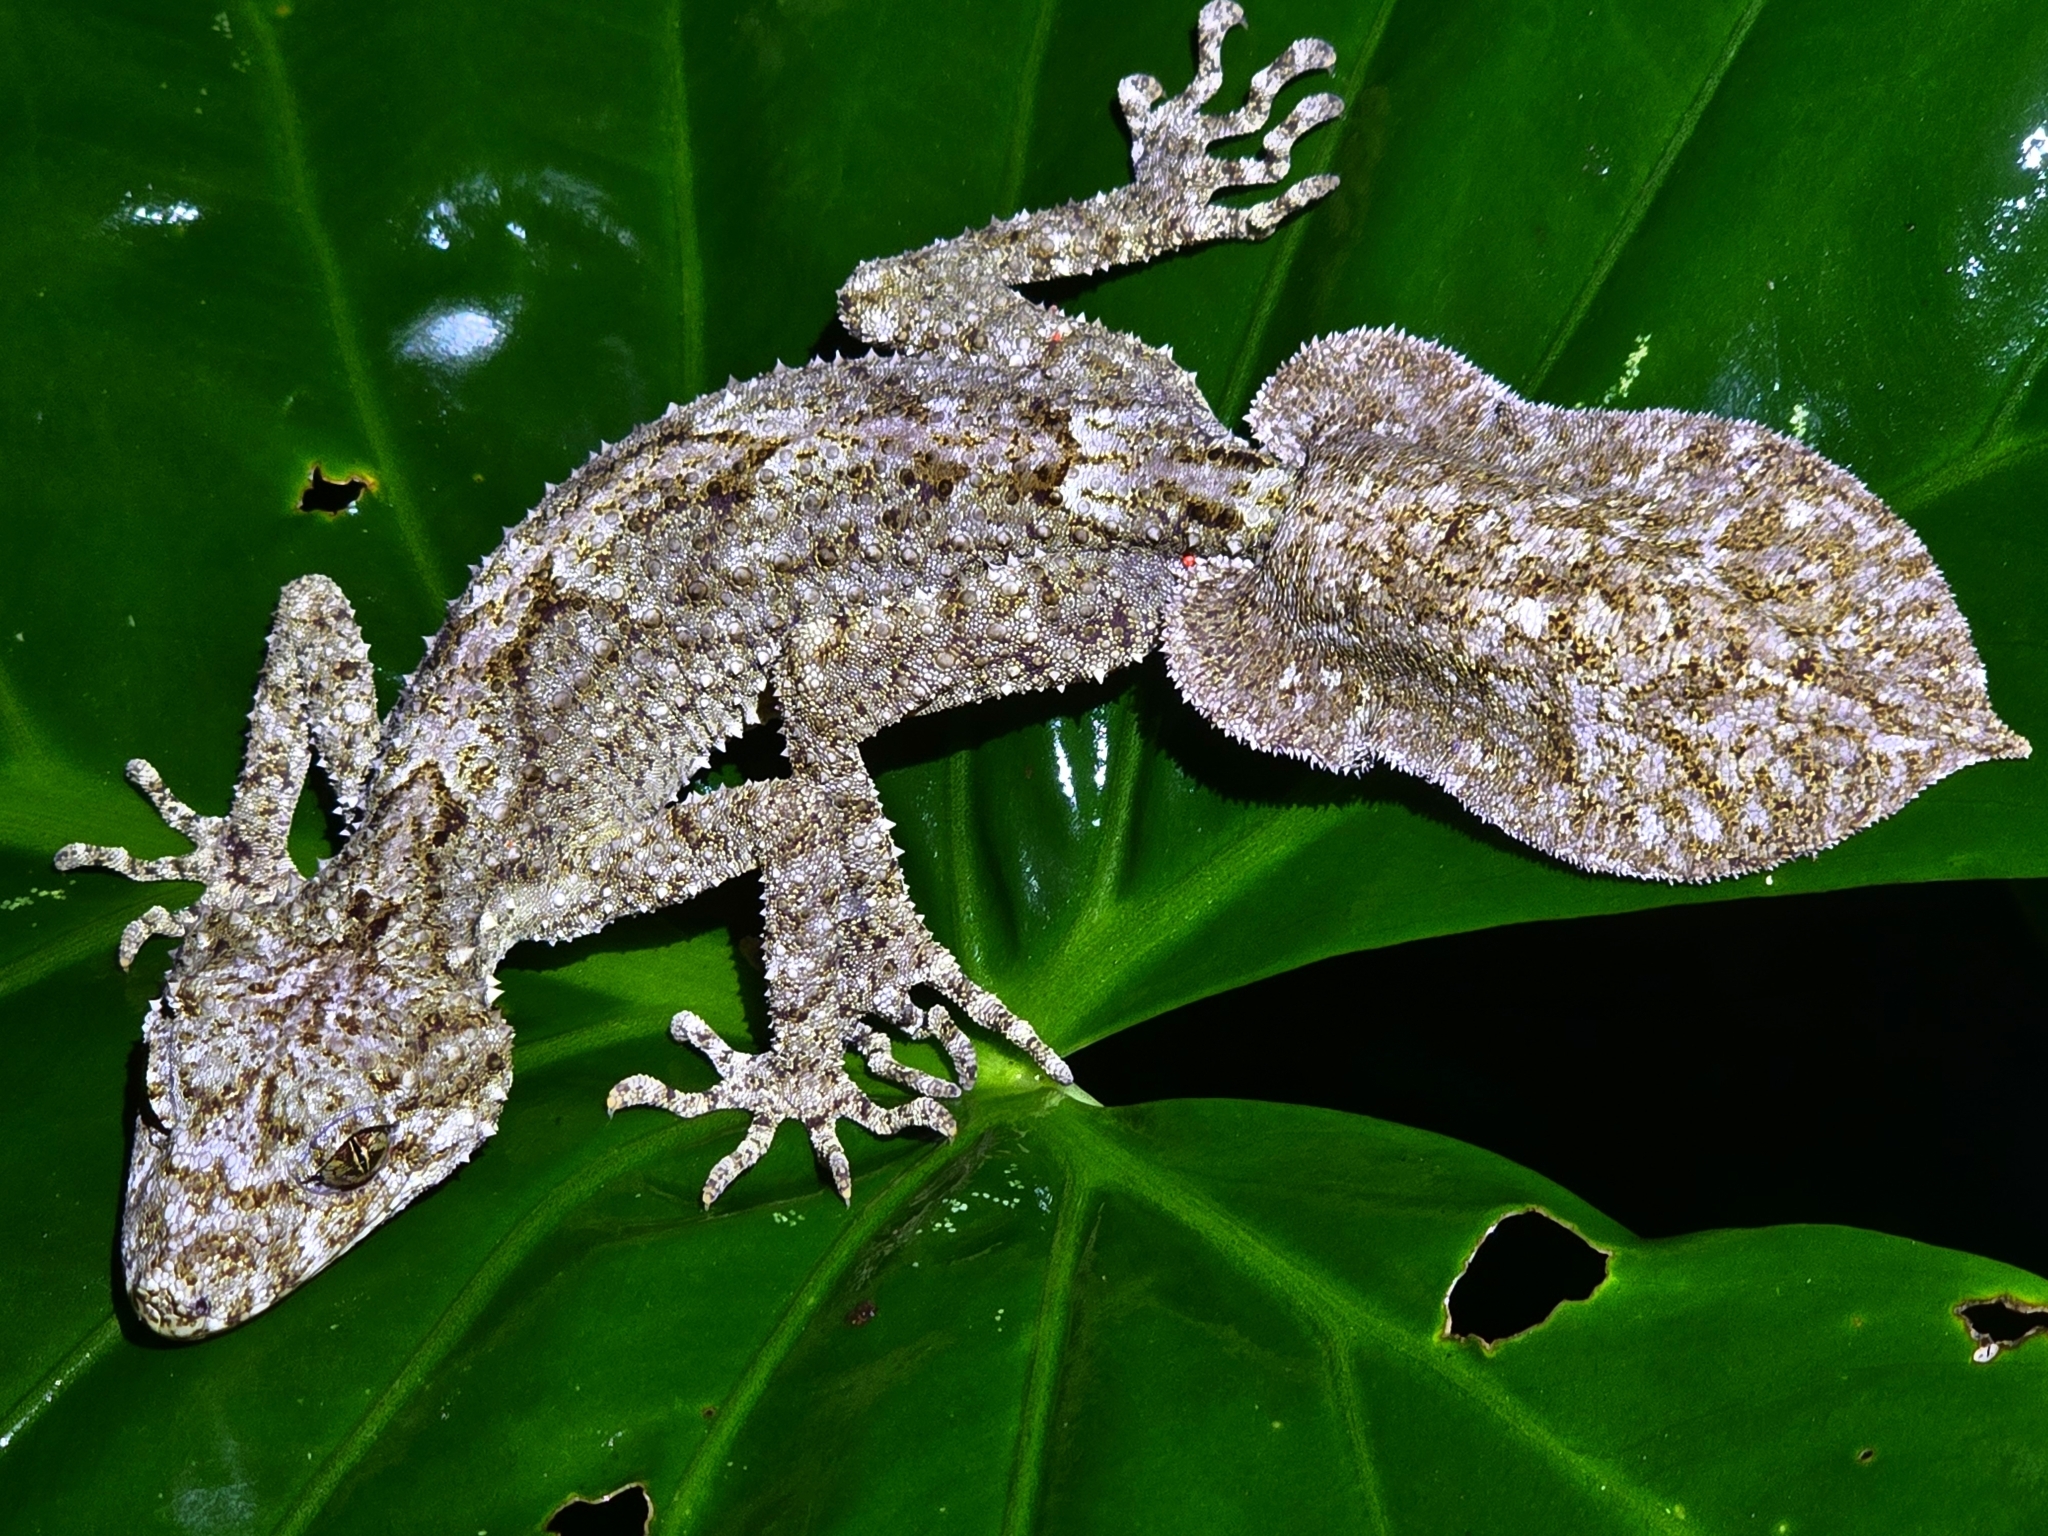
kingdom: Animalia
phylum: Chordata
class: Squamata
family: Carphodactylidae
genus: Saltuarius
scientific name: Saltuarius moritzi
